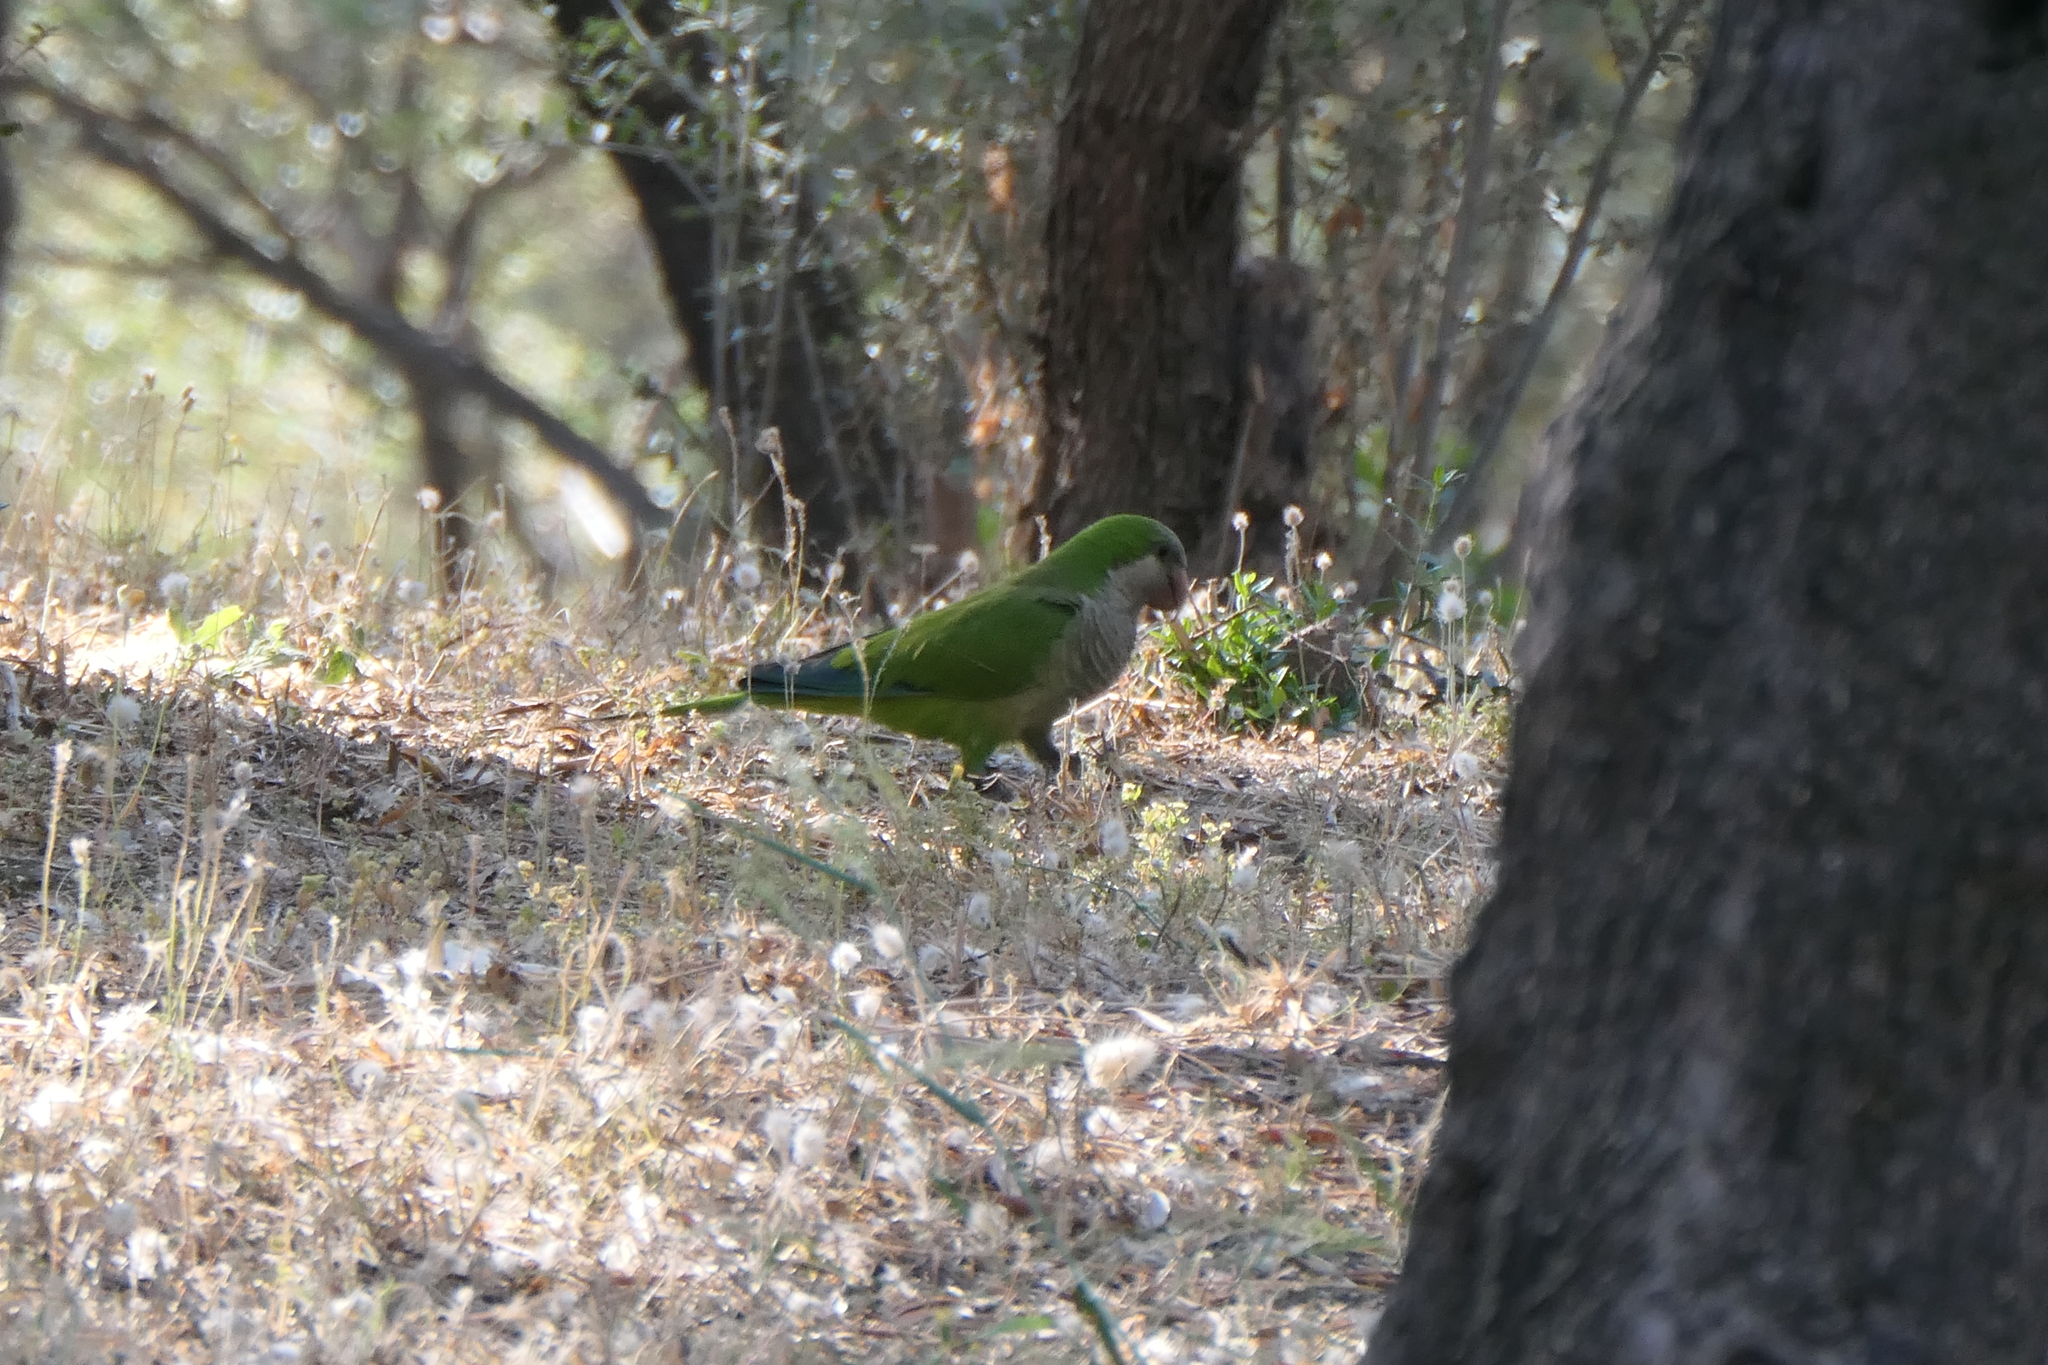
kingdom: Animalia
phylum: Chordata
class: Aves
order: Psittaciformes
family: Psittacidae
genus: Myiopsitta
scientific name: Myiopsitta monachus
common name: Monk parakeet
